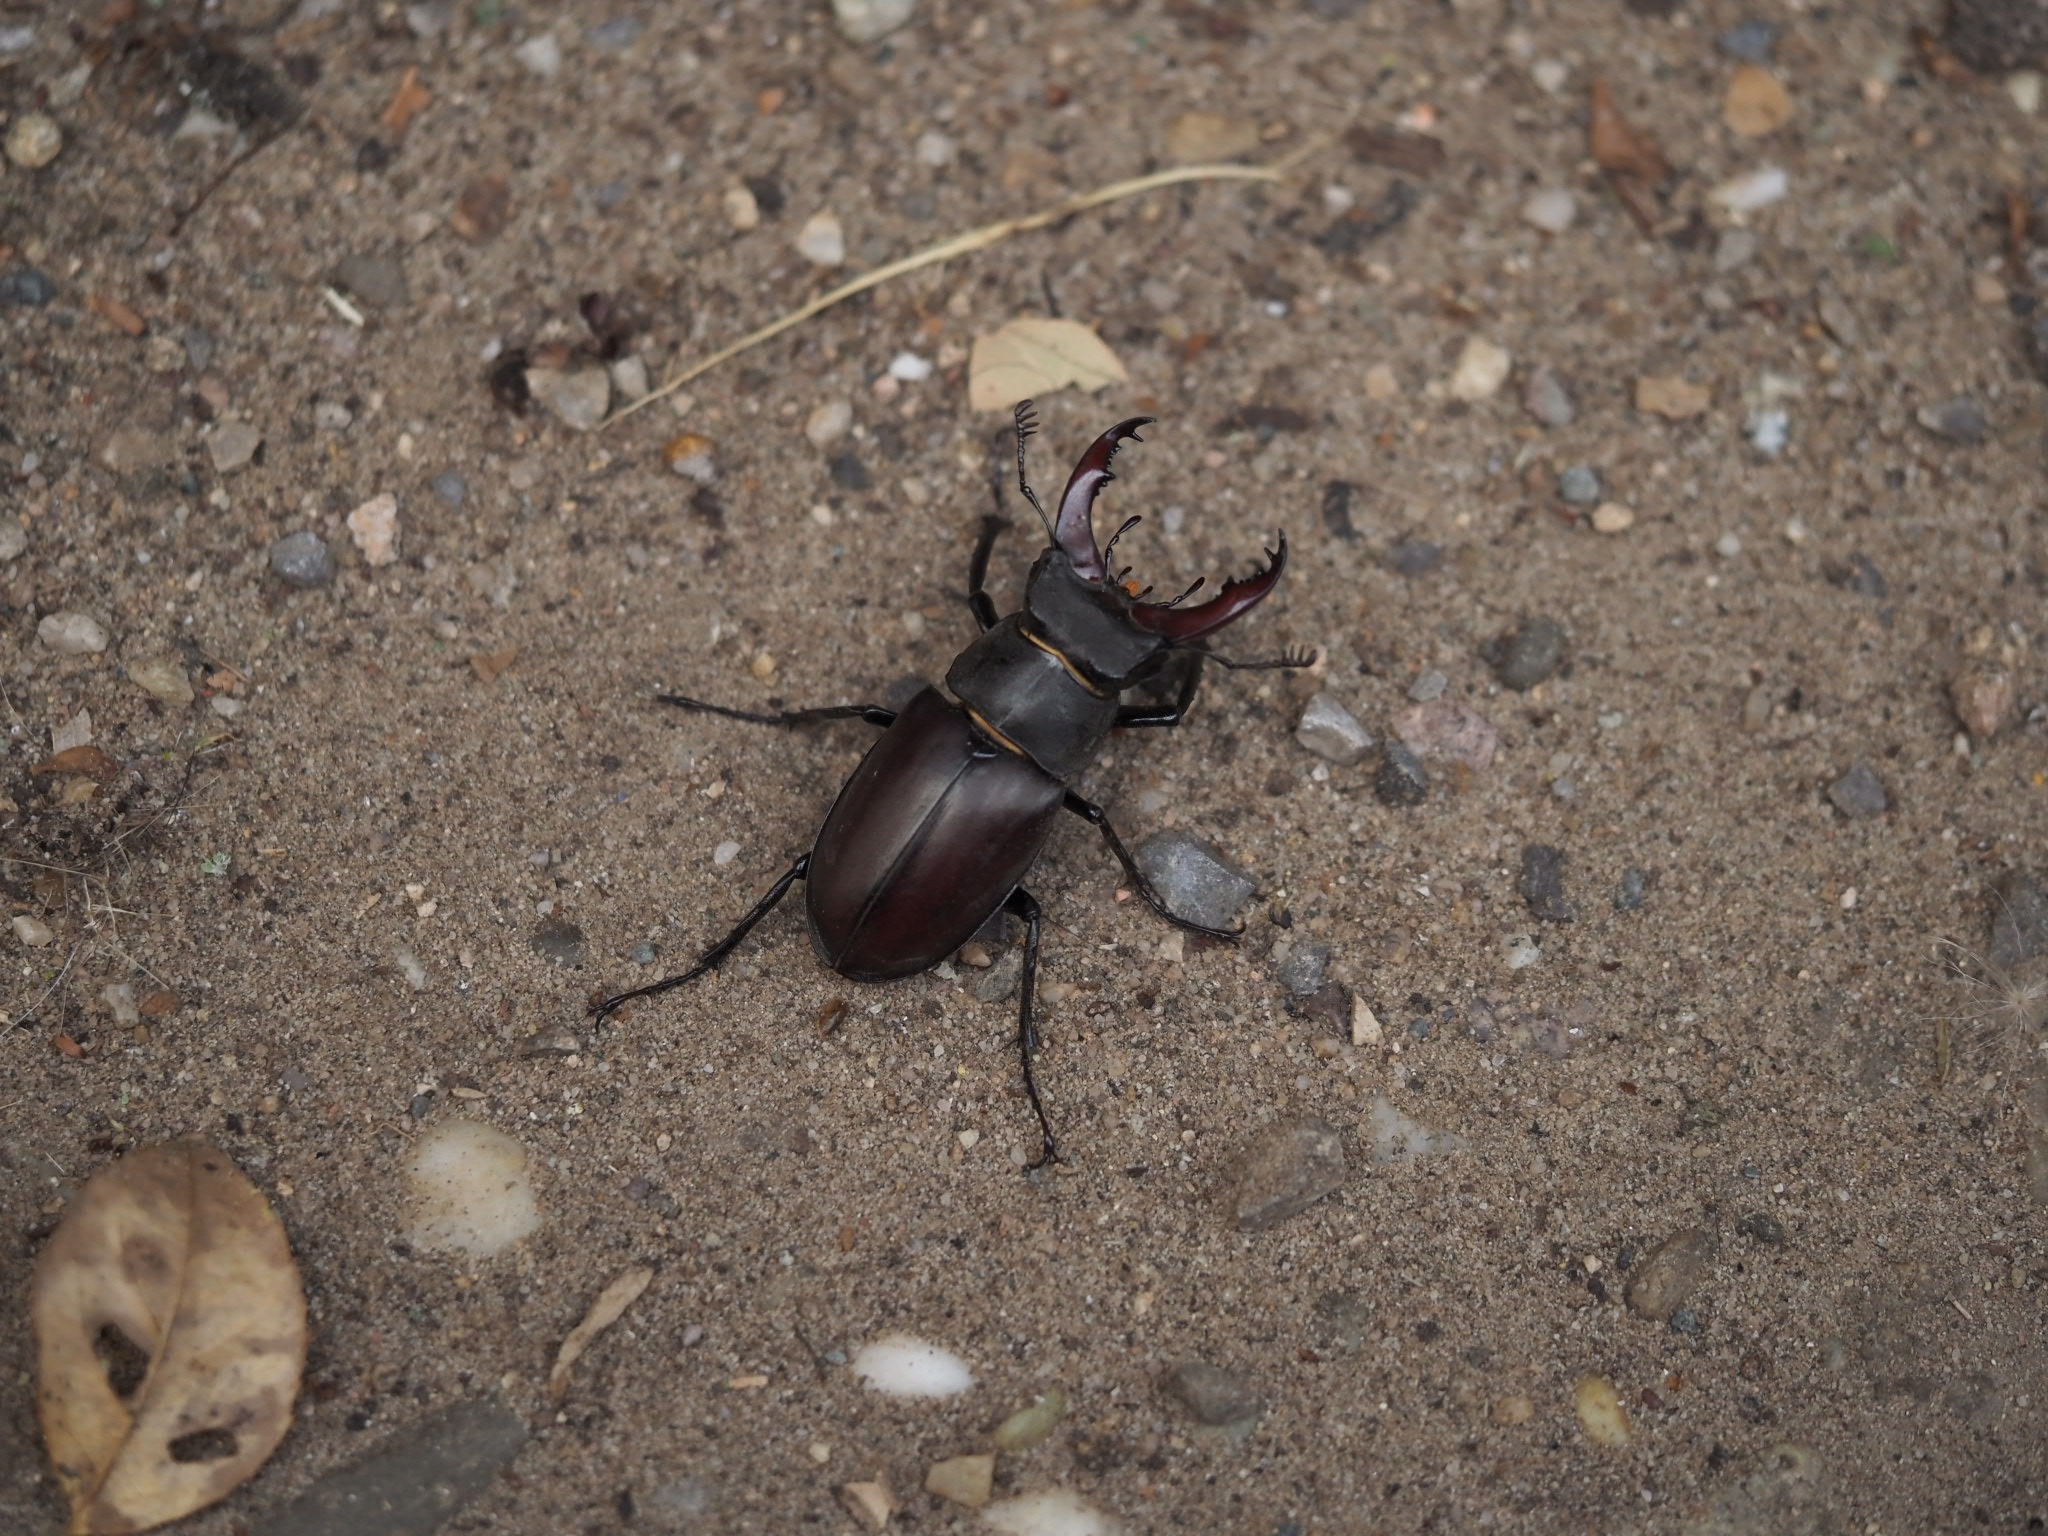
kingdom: Animalia
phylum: Arthropoda
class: Insecta
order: Coleoptera
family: Lucanidae
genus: Lucanus
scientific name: Lucanus cervus
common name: Stag beetle
